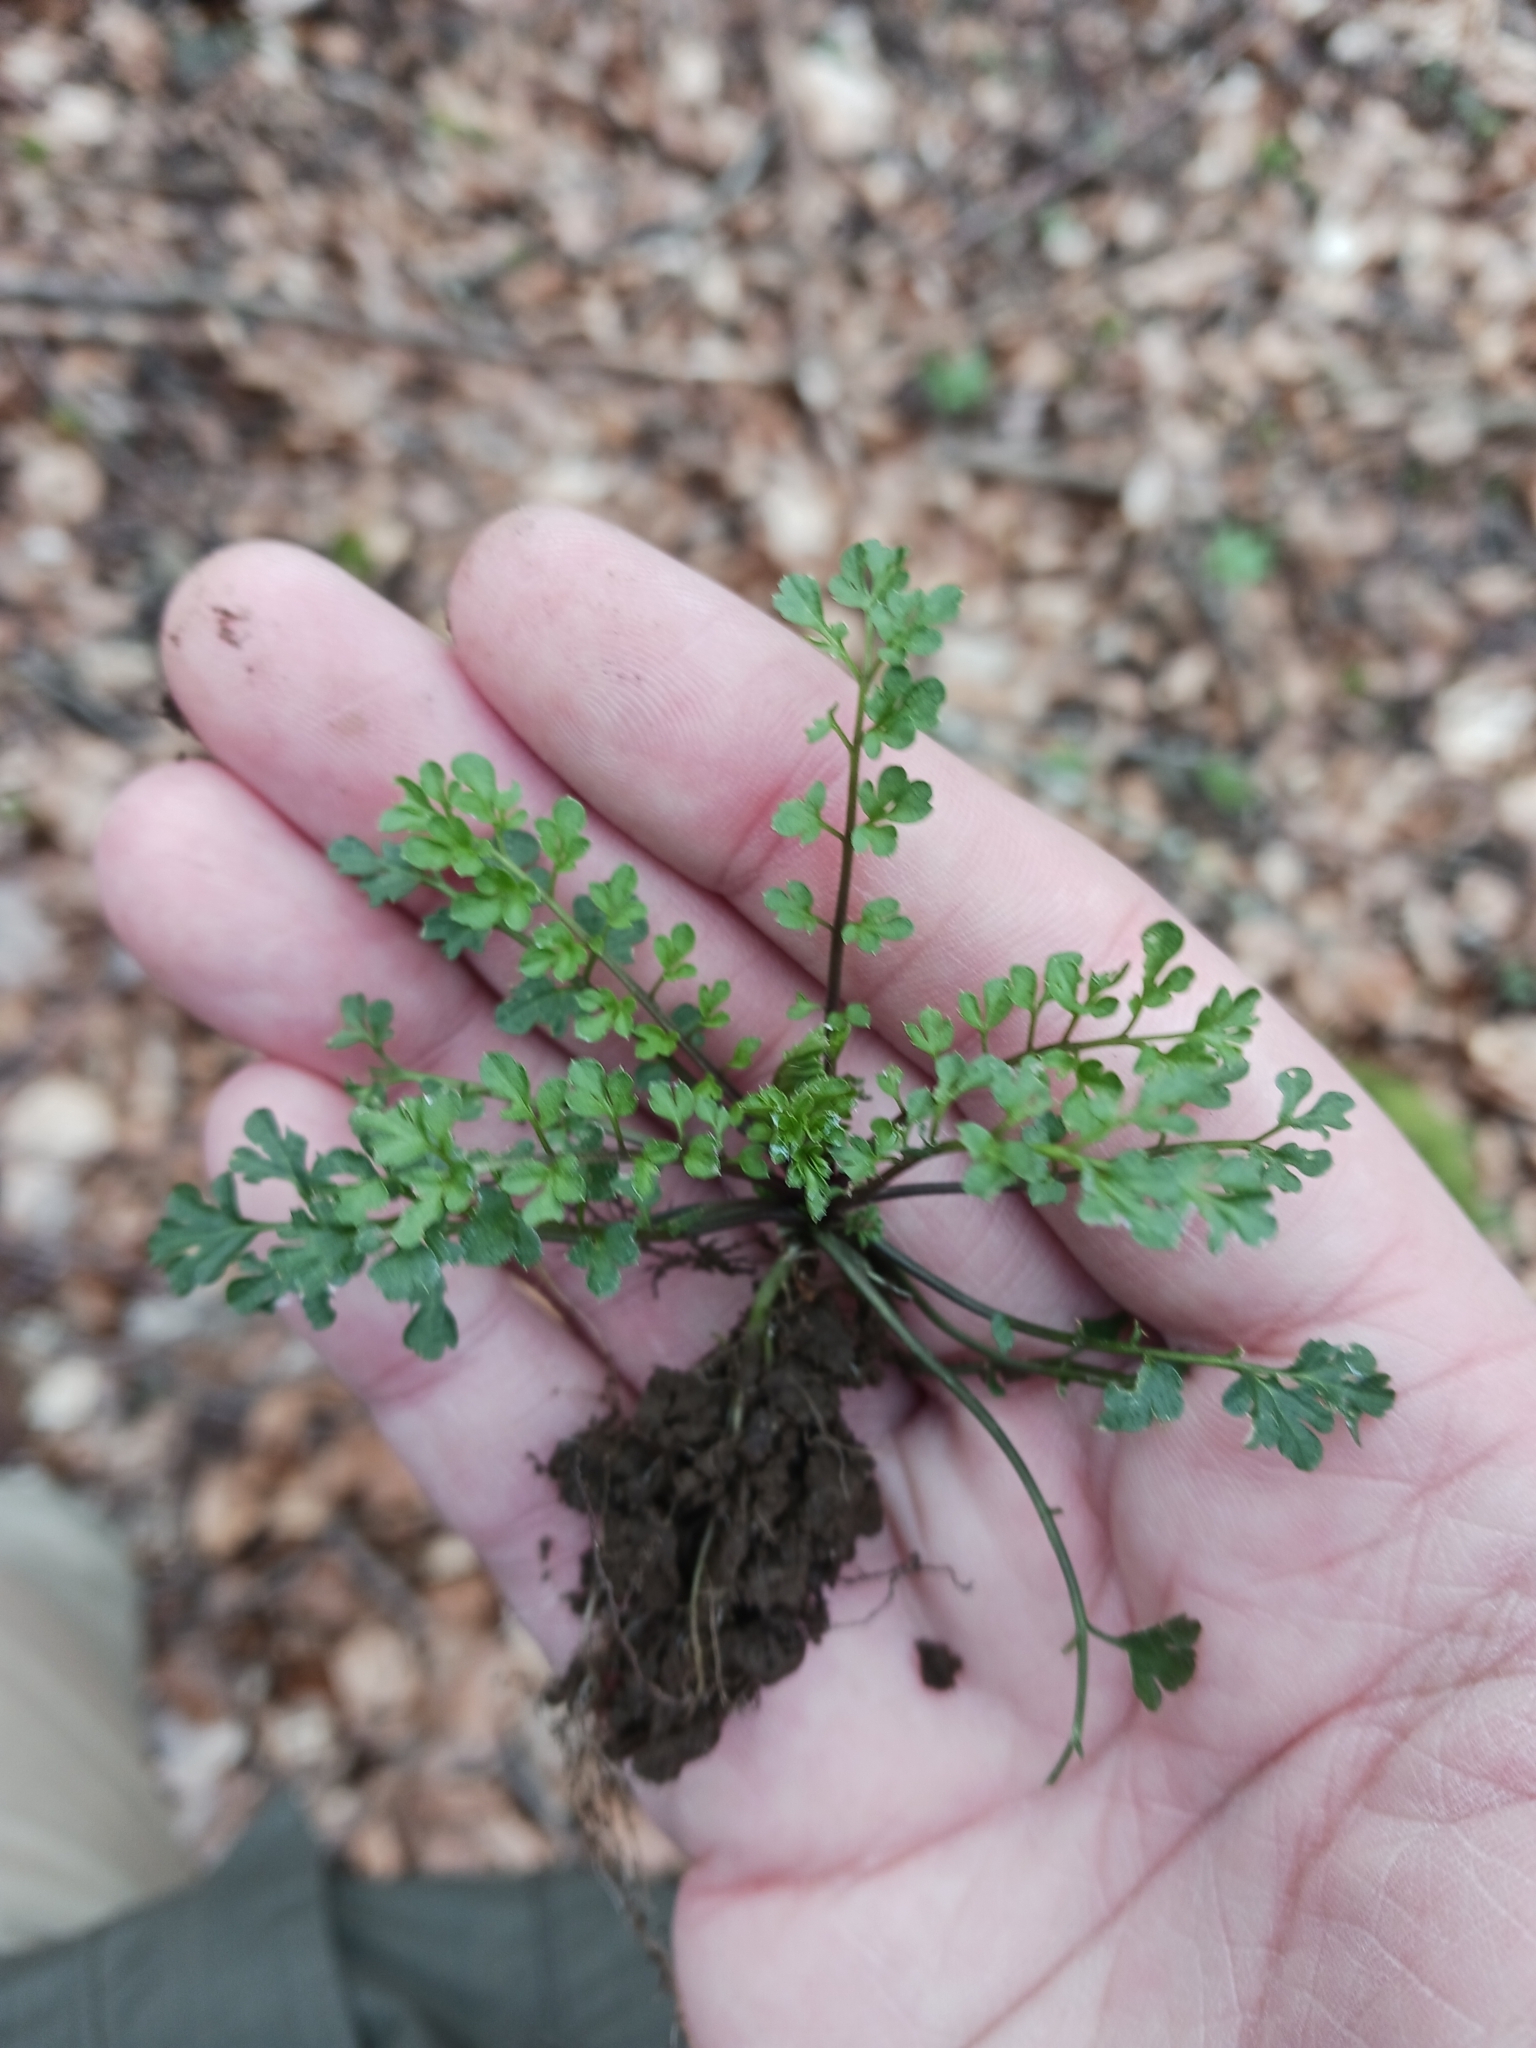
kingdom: Plantae
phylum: Tracheophyta
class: Magnoliopsida
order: Brassicales
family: Brassicaceae
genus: Cardamine
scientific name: Cardamine impatiens
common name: Narrow-leaved bitter-cress
